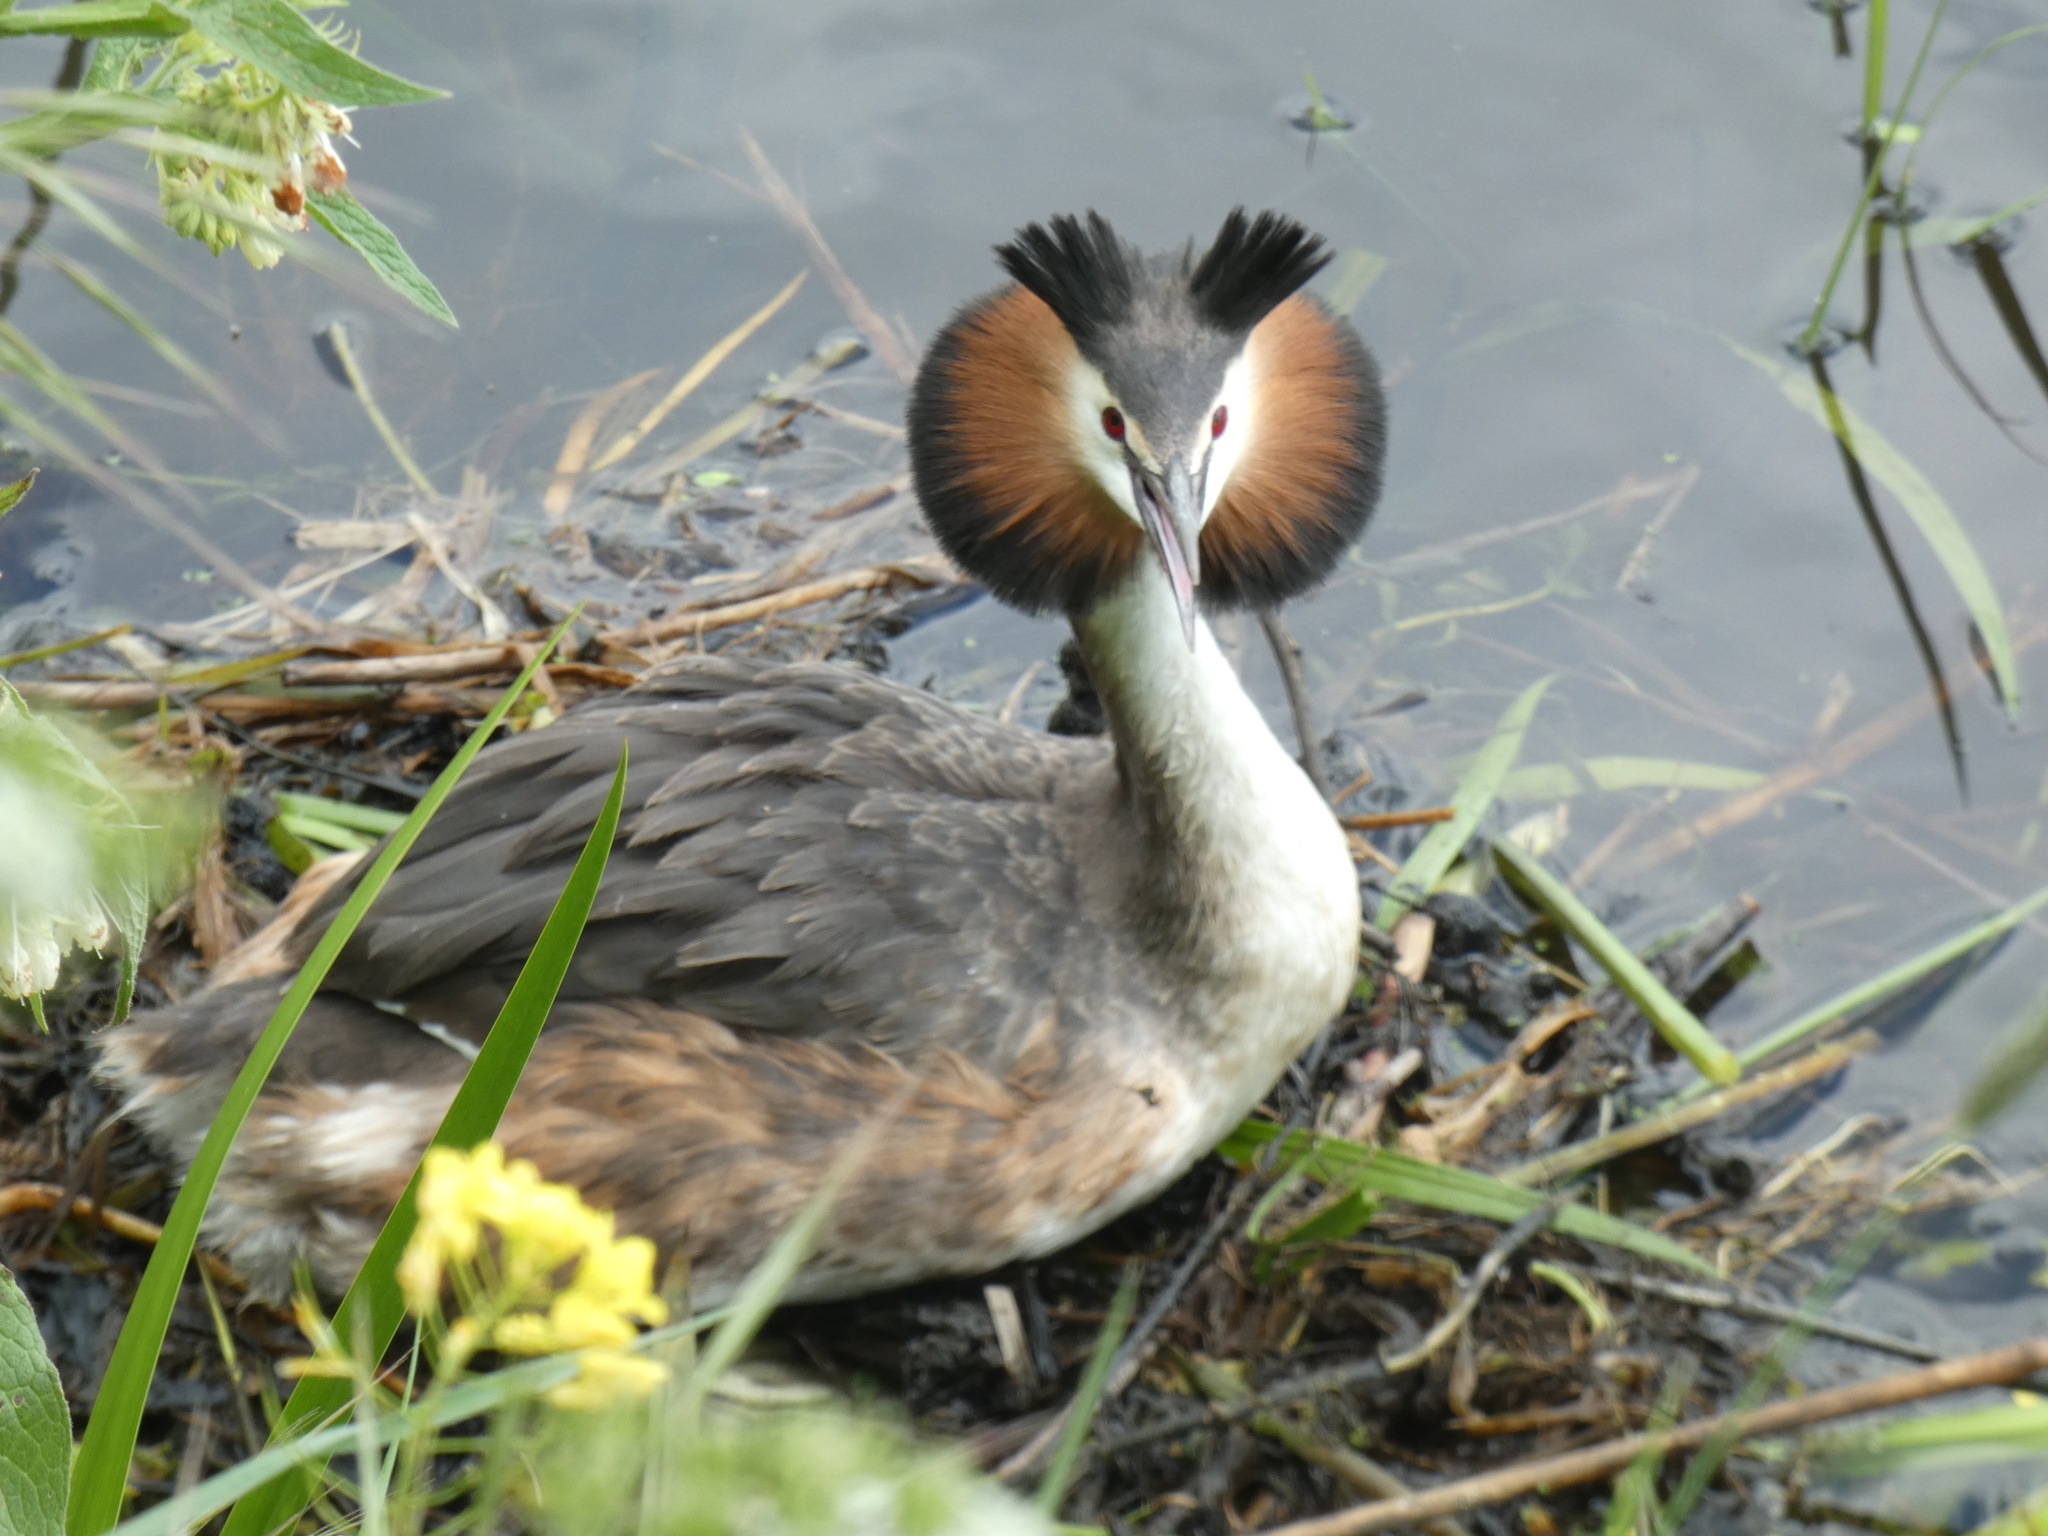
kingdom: Animalia
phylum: Chordata
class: Aves
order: Podicipediformes
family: Podicipedidae
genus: Podiceps
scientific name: Podiceps cristatus
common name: Great crested grebe
